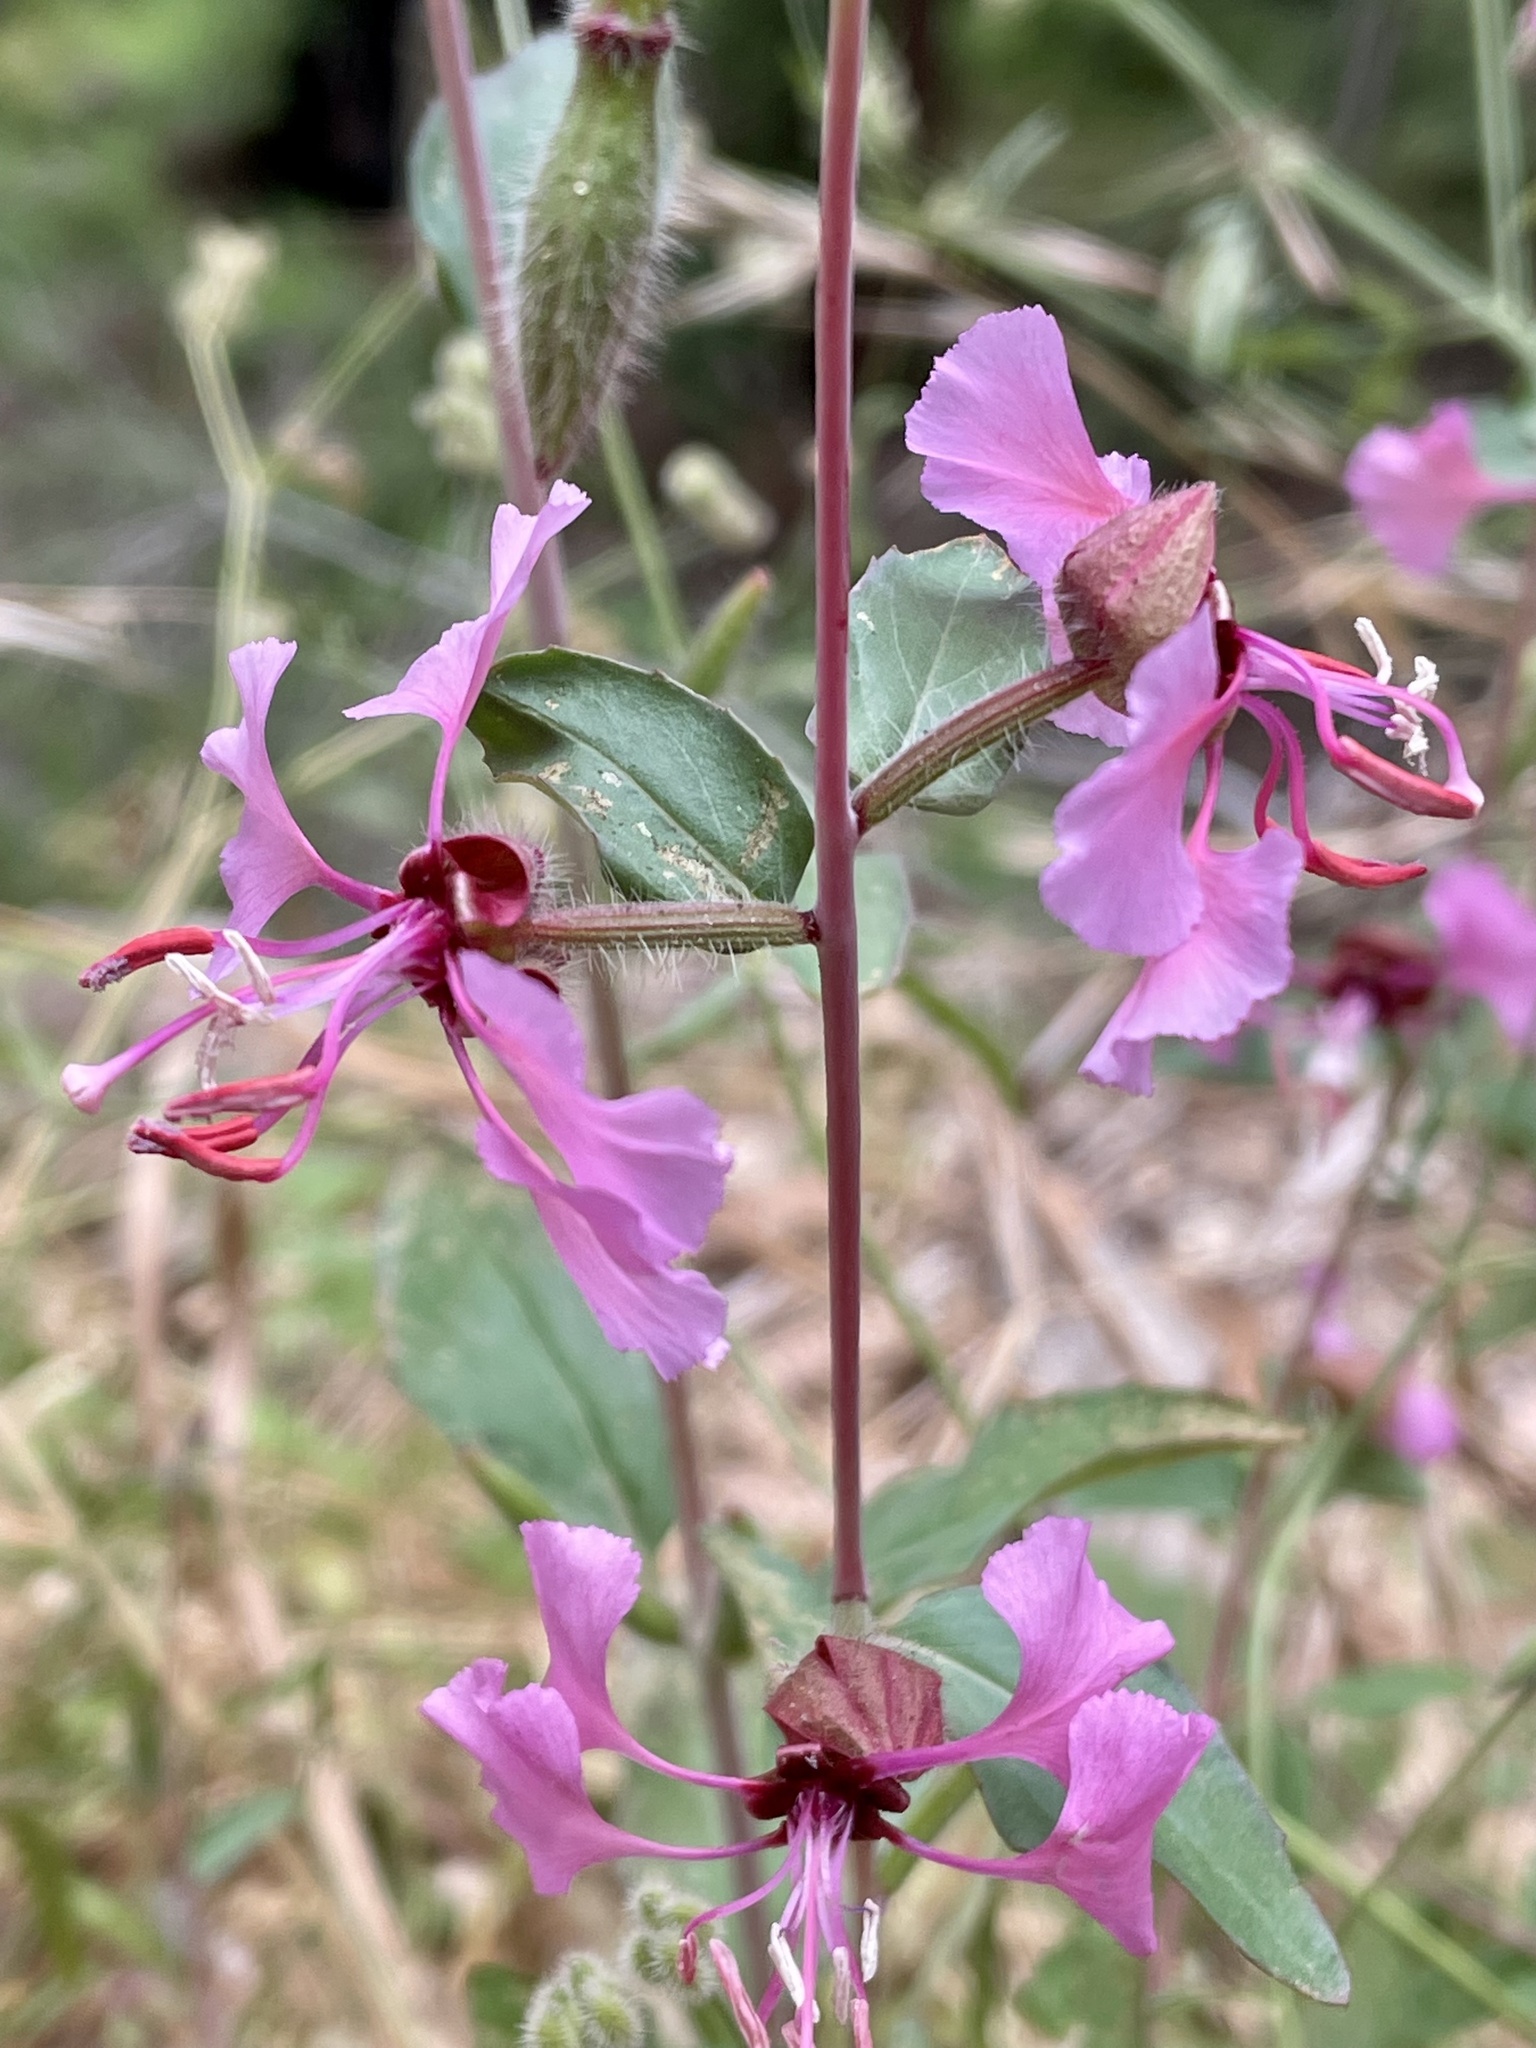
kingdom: Plantae
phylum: Tracheophyta
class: Magnoliopsida
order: Myrtales
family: Onagraceae
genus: Clarkia
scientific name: Clarkia unguiculata
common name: Clarkia
